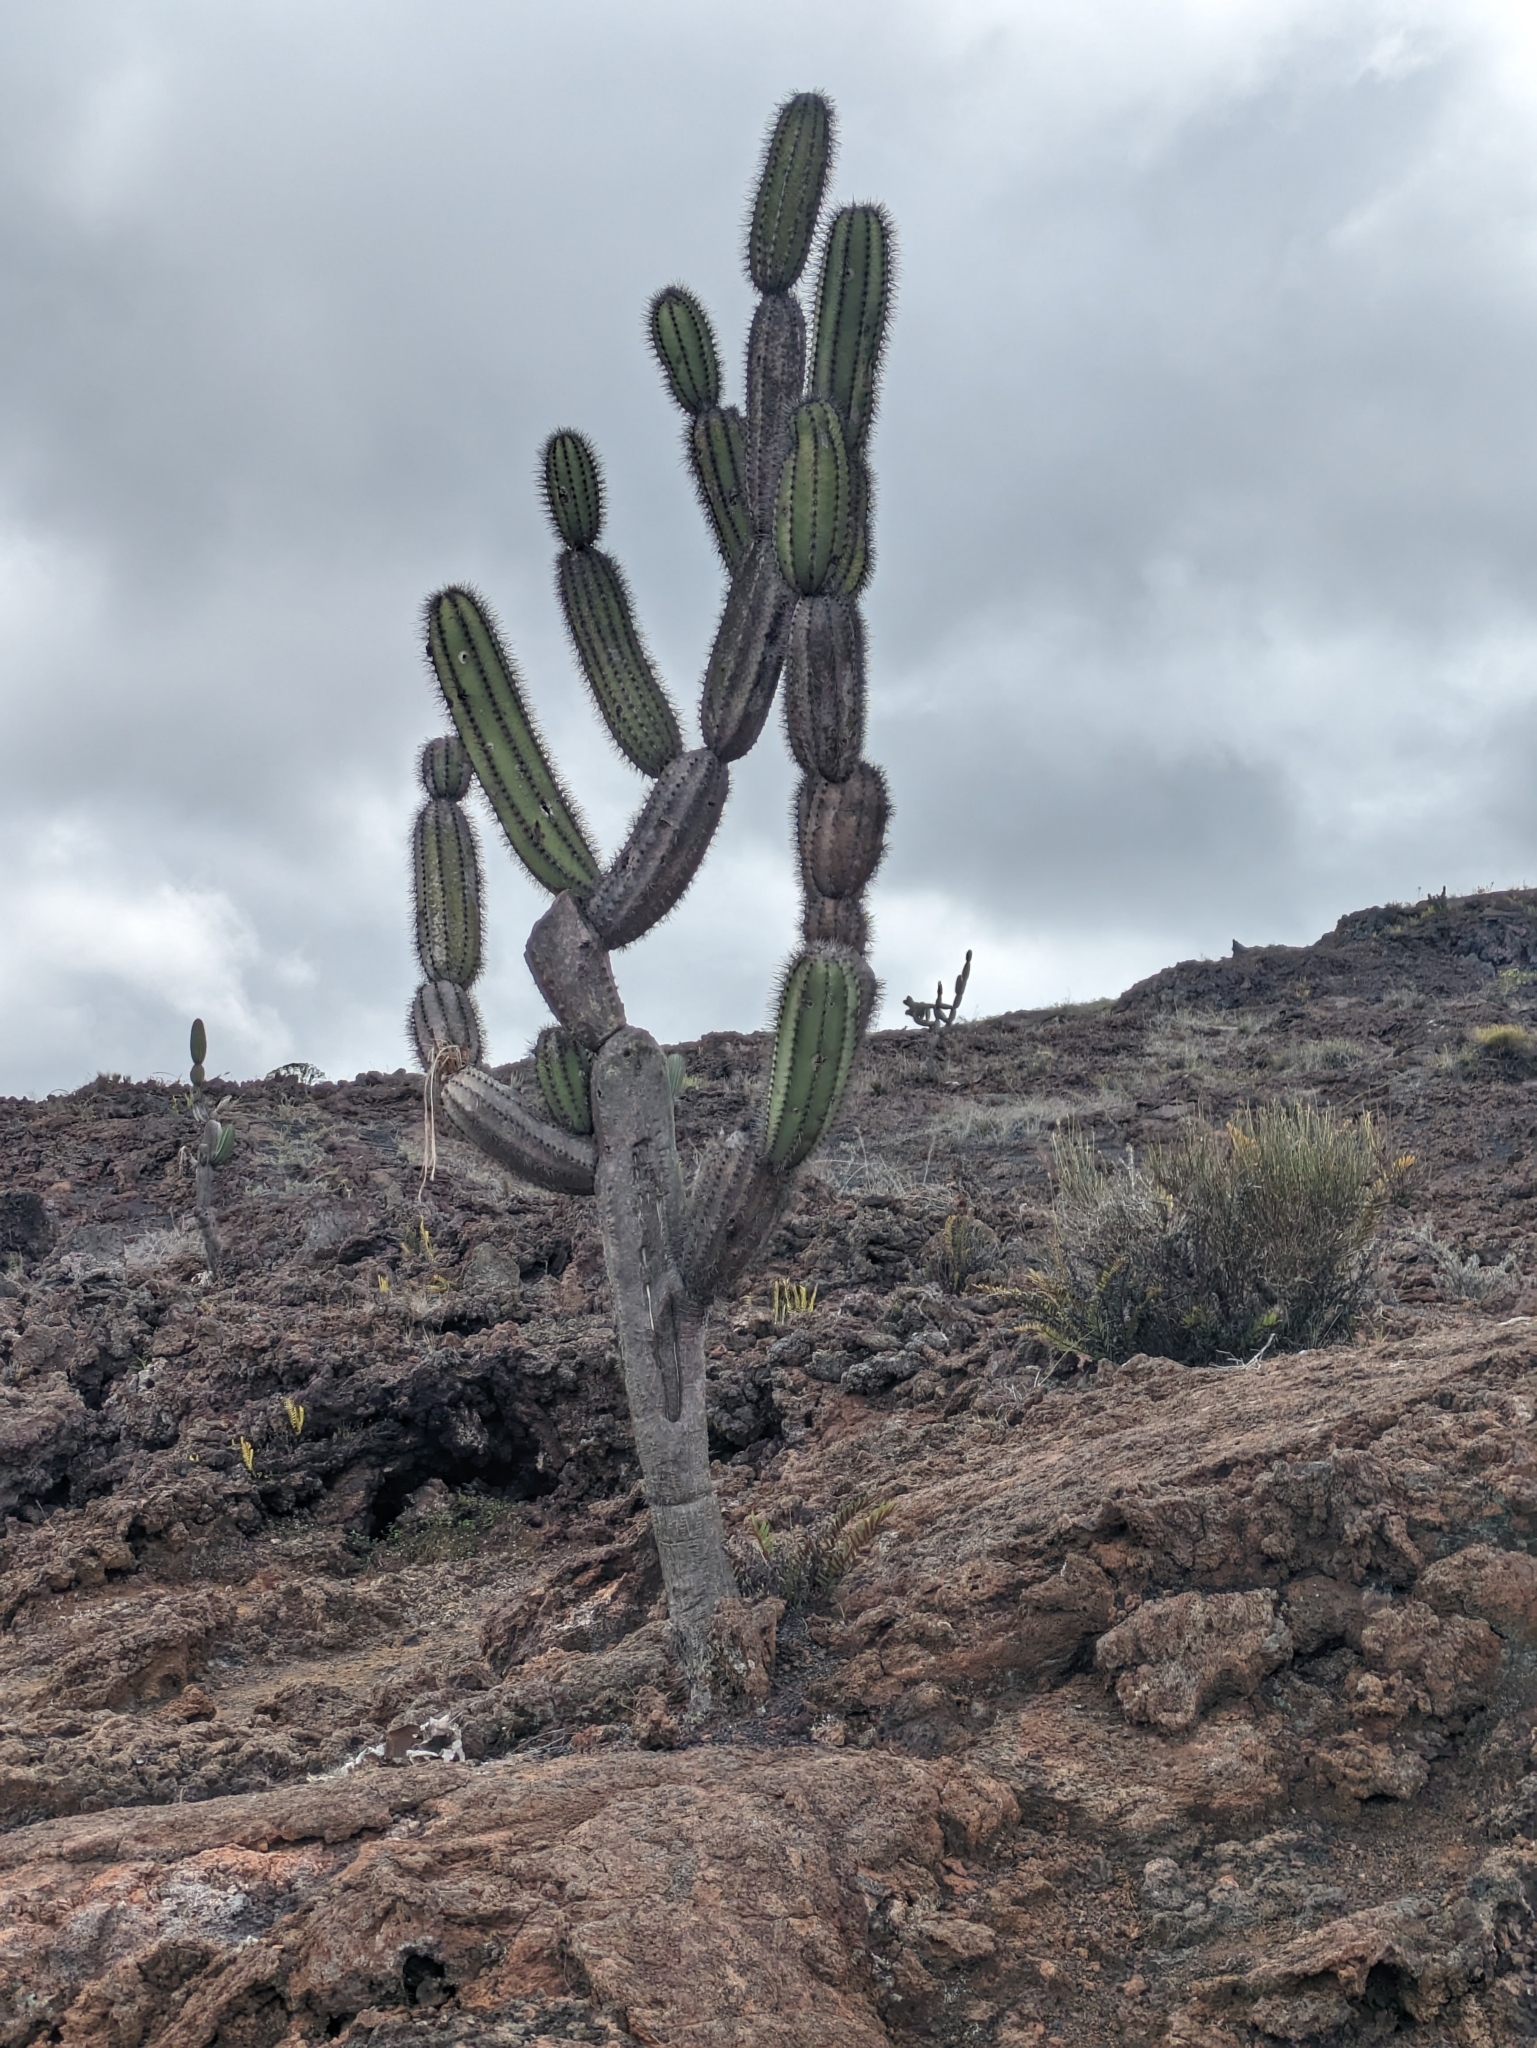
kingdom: Plantae
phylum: Tracheophyta
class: Magnoliopsida
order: Caryophyllales
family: Cactaceae
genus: Jasminocereus
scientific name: Jasminocereus thouarsii
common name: Candelabra cactus
